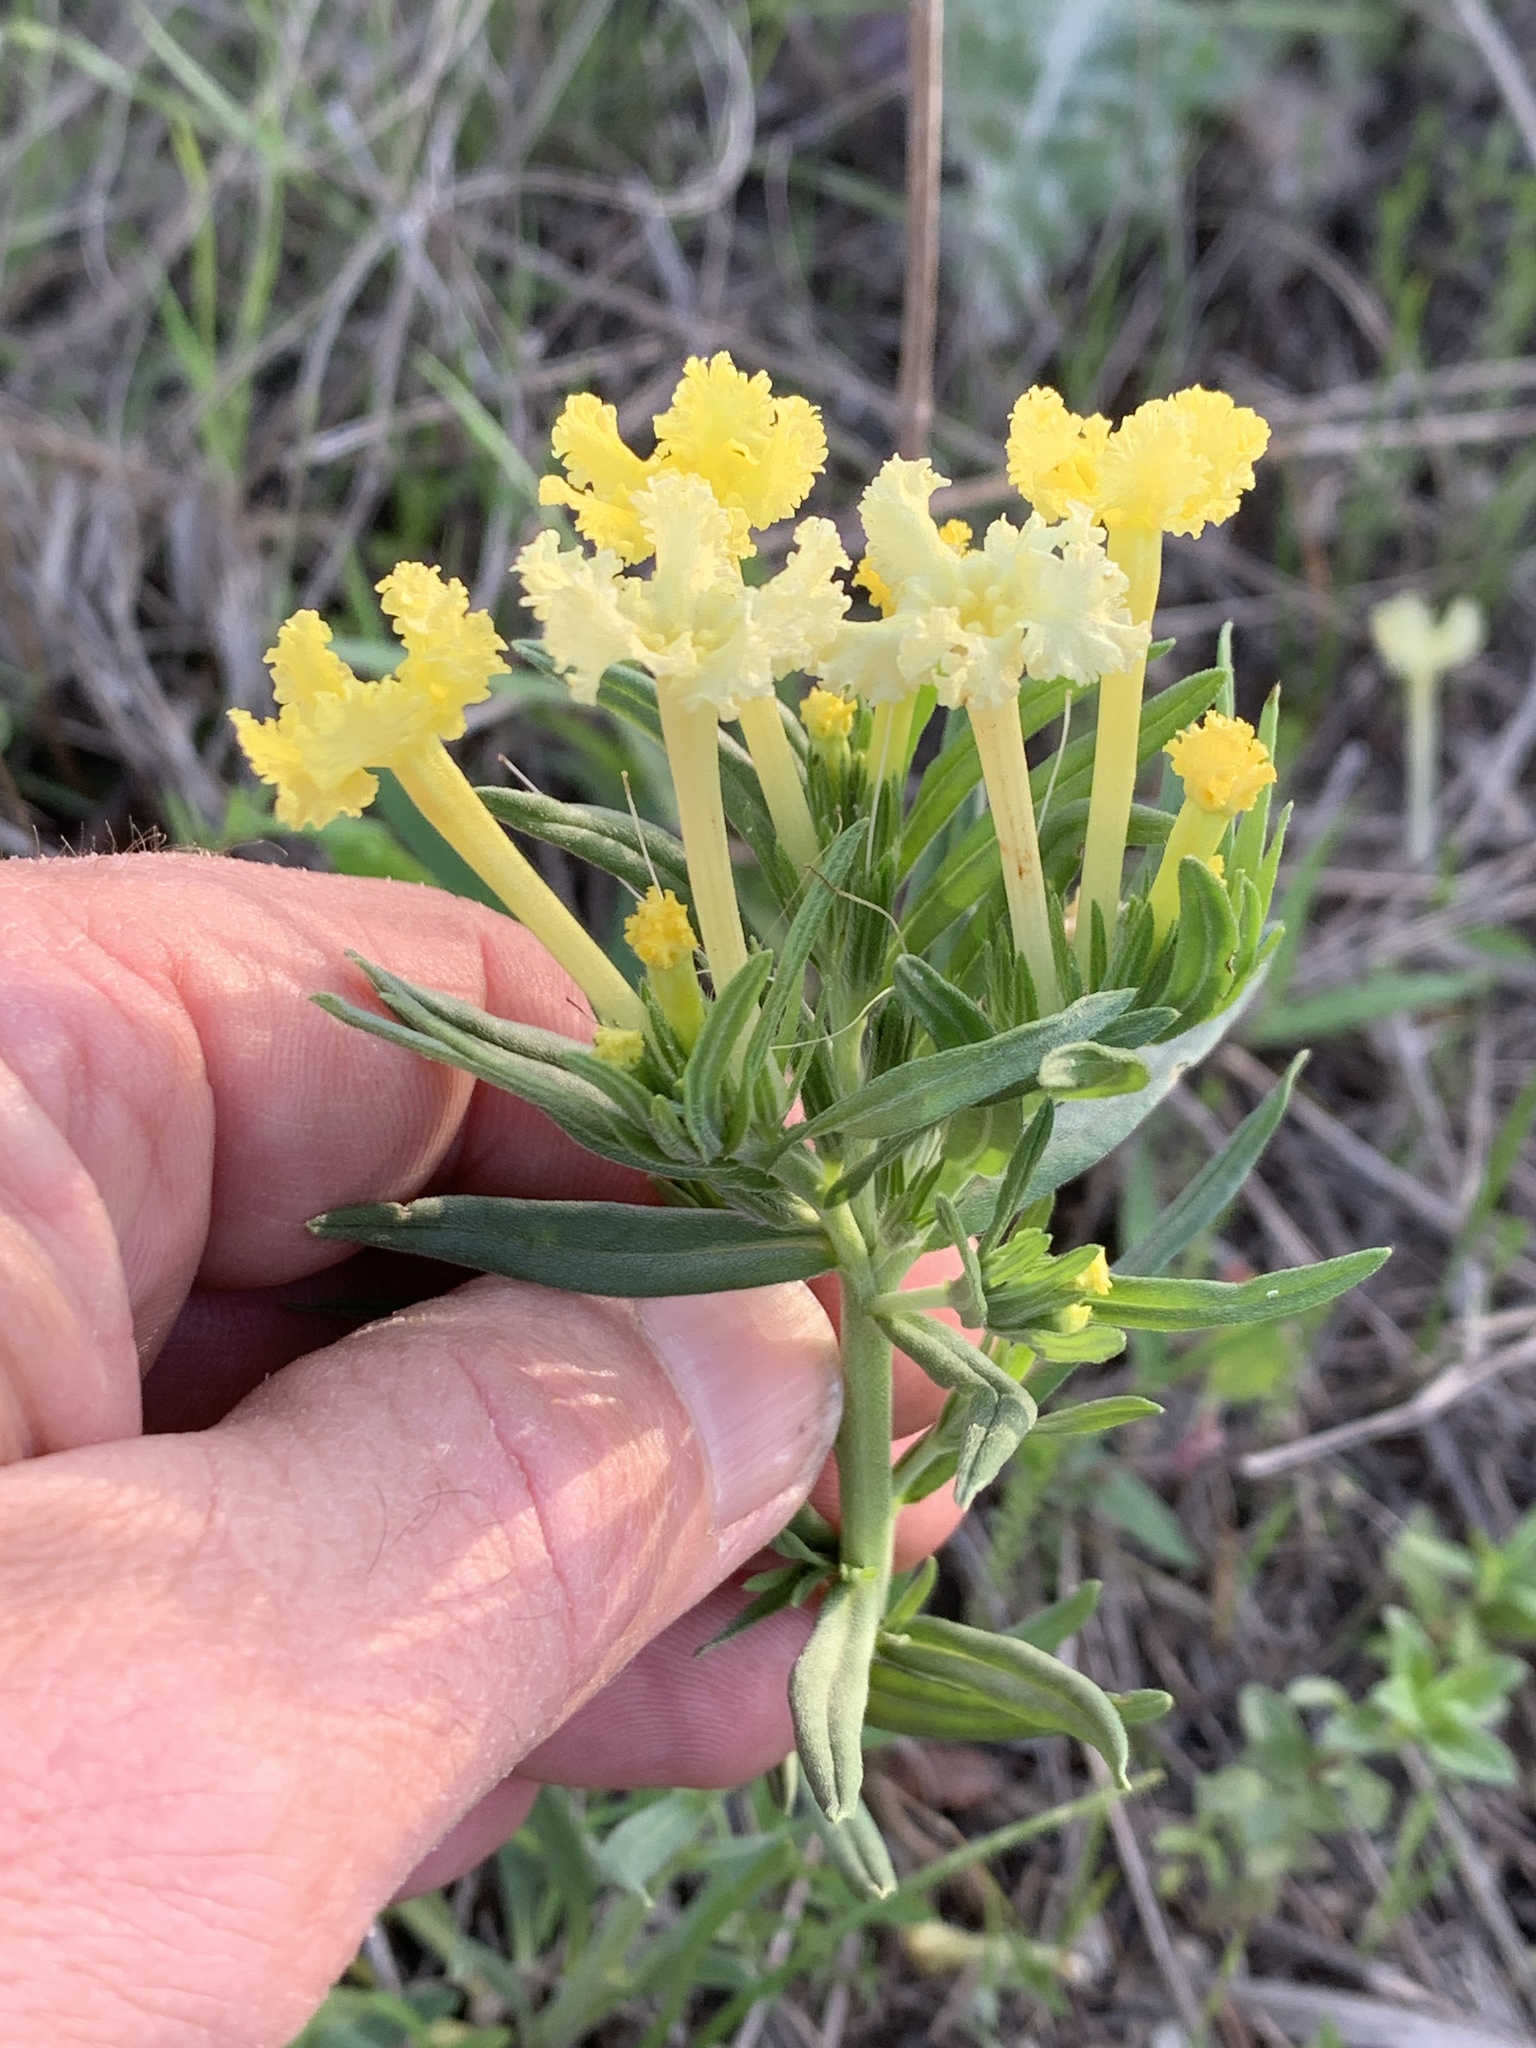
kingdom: Plantae
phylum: Tracheophyta
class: Magnoliopsida
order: Boraginales
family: Boraginaceae
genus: Lithospermum
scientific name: Lithospermum incisum
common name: Fringed gromwell
